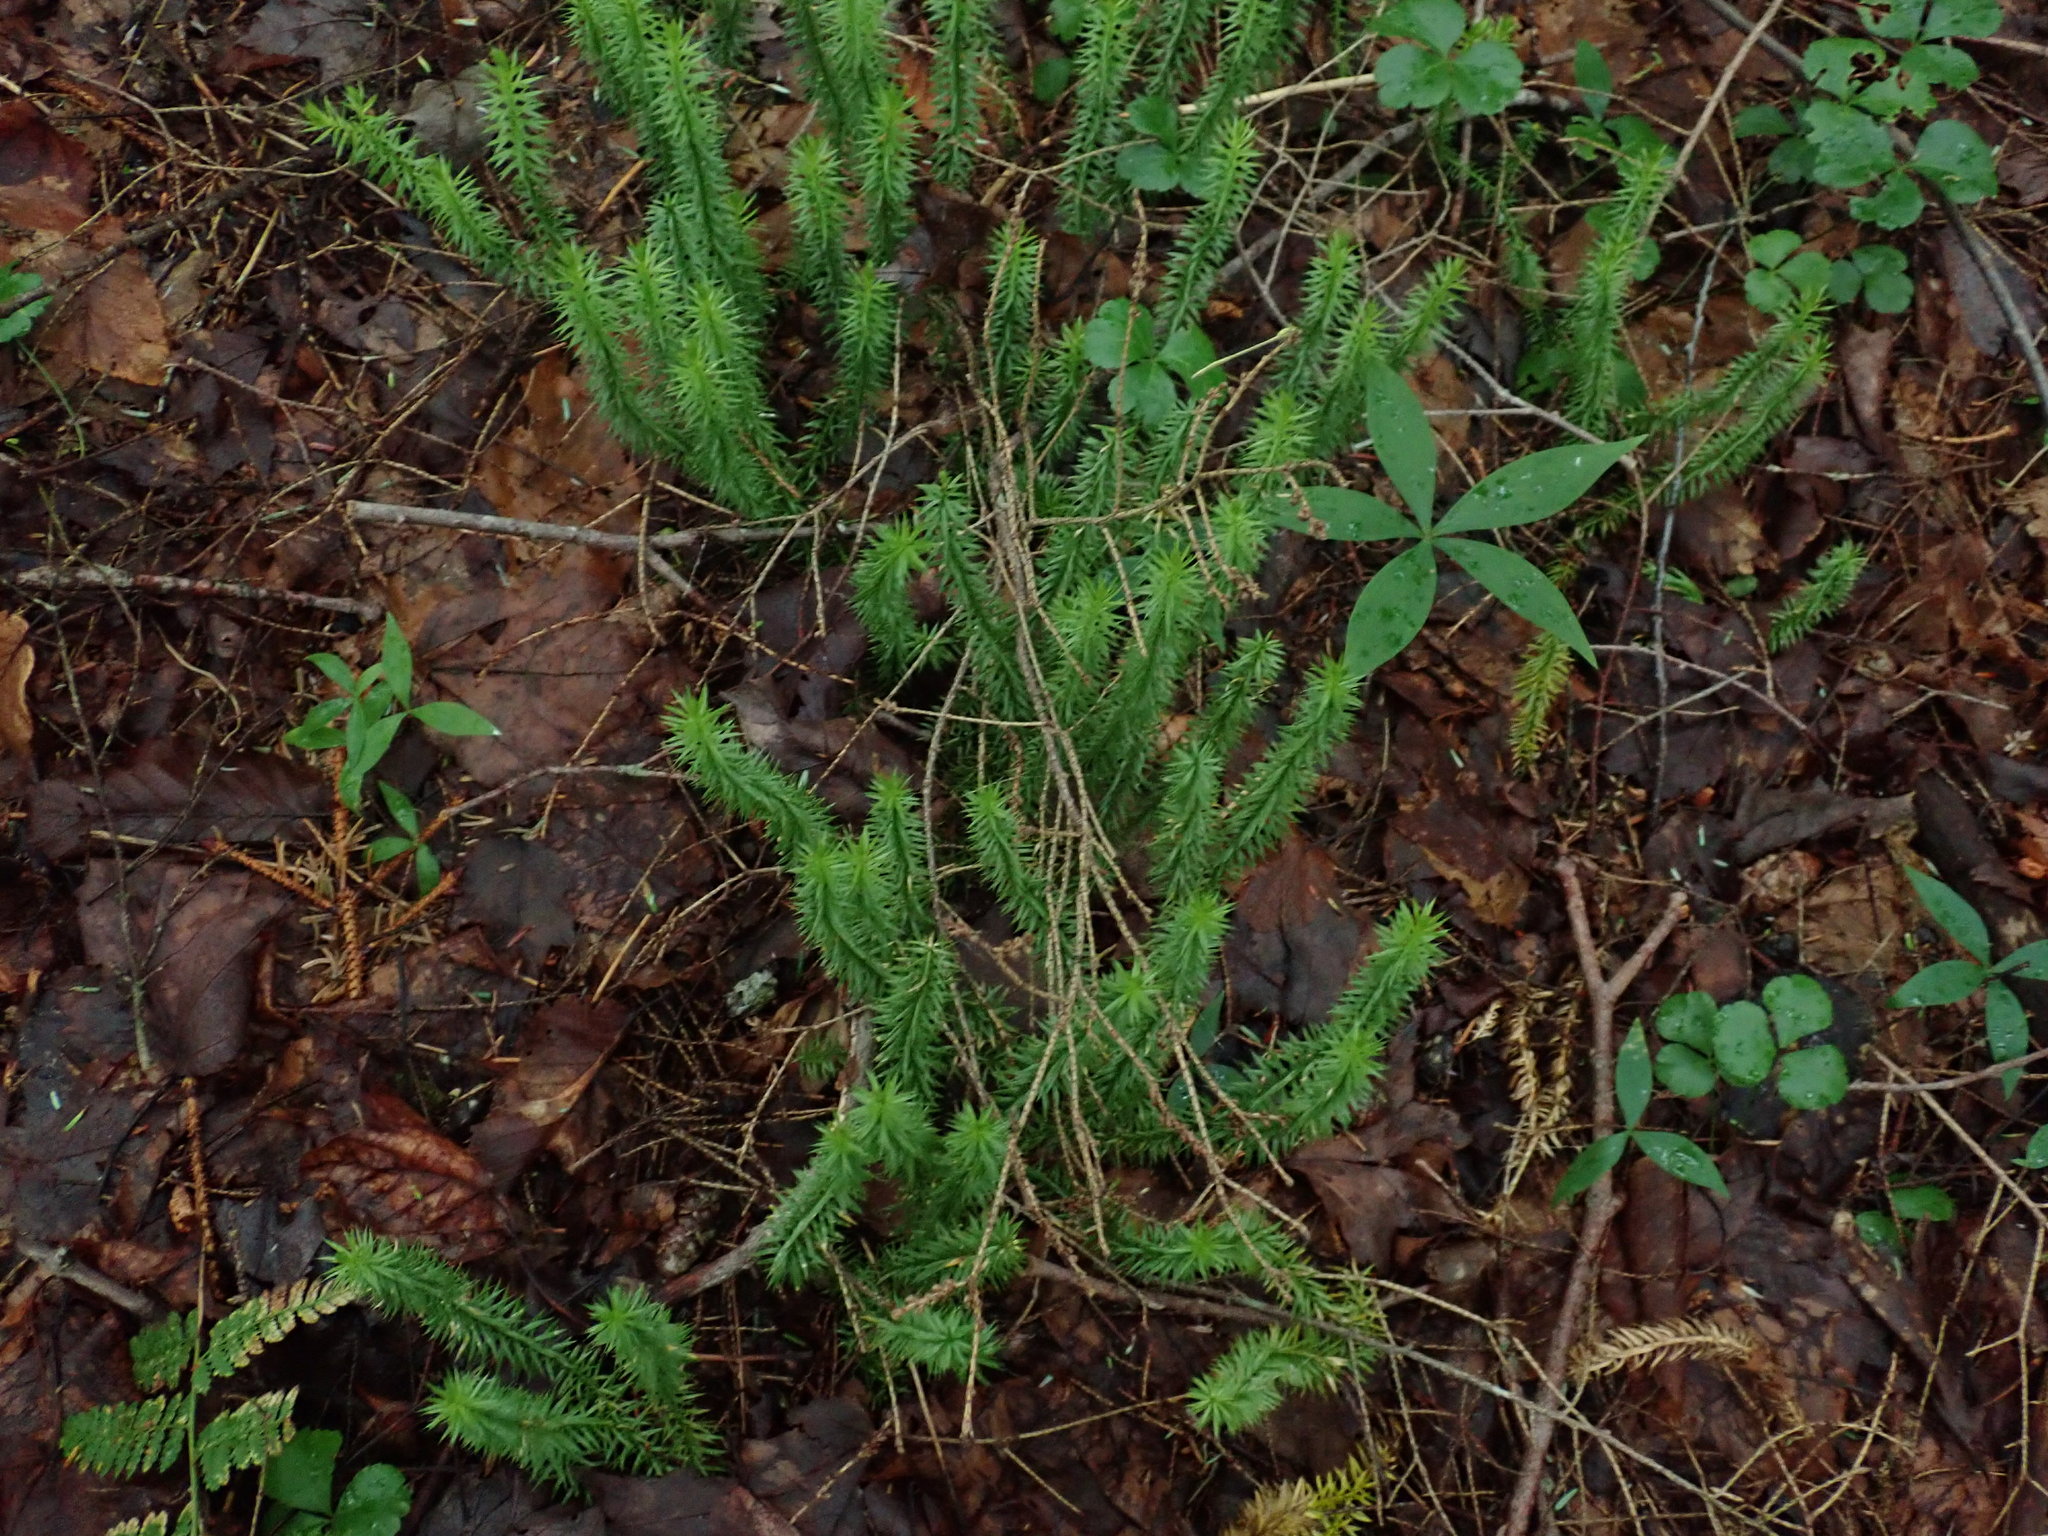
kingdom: Plantae
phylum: Tracheophyta
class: Lycopodiopsida
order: Lycopodiales
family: Lycopodiaceae
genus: Spinulum
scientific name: Spinulum annotinum
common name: Interrupted club-moss
